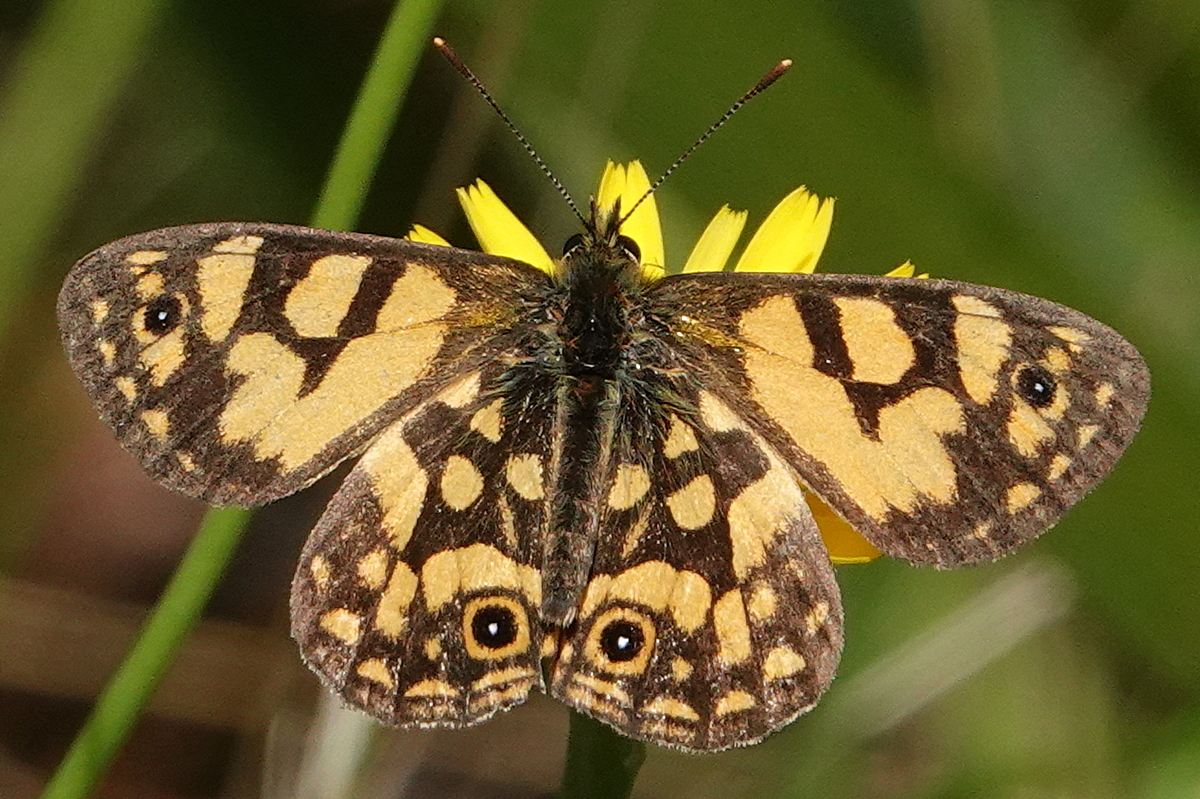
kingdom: Animalia
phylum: Arthropoda
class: Insecta
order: Lepidoptera
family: Nymphalidae
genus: Oreixenica
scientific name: Oreixenica lathoniella
